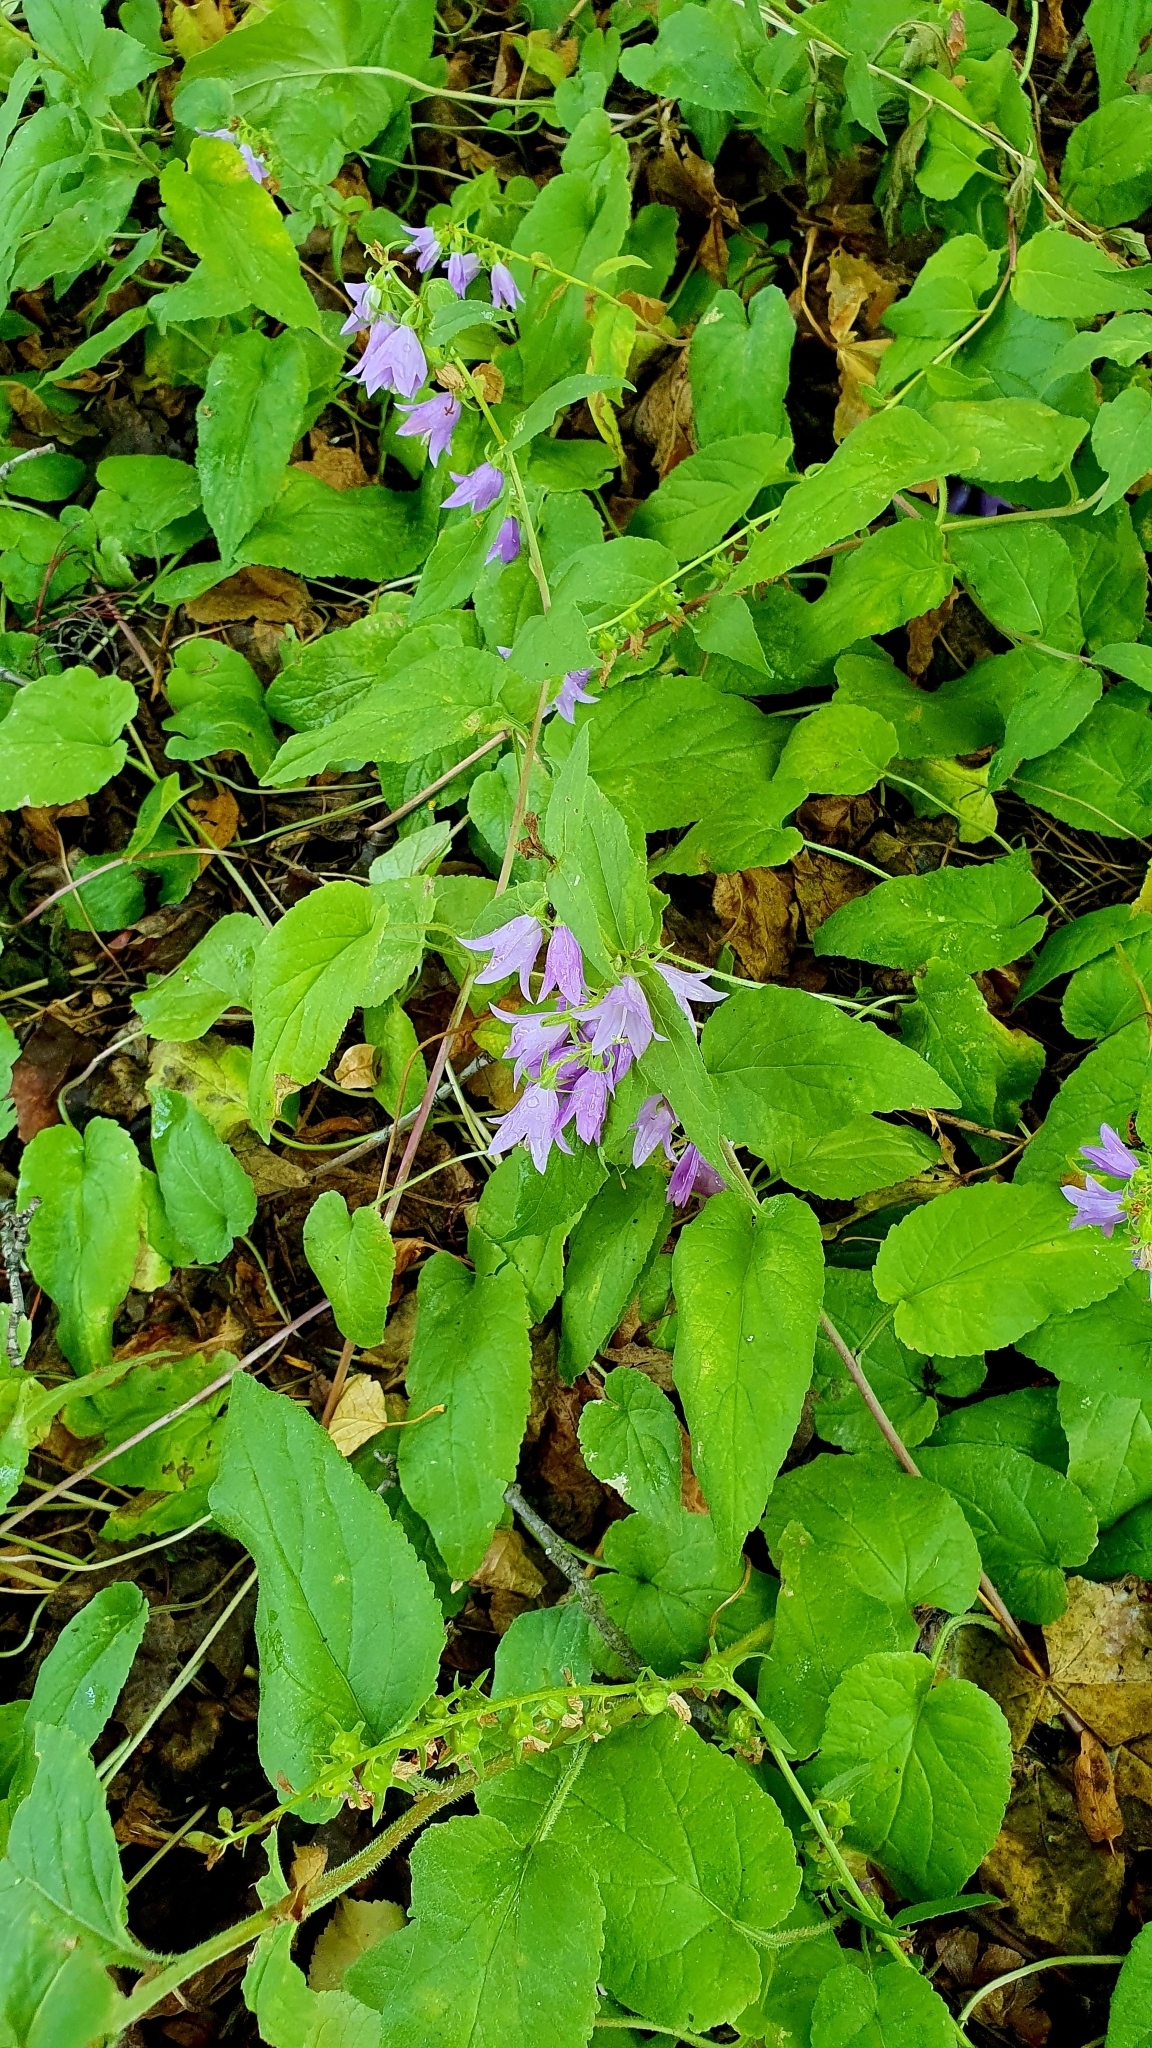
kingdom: Plantae
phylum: Tracheophyta
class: Magnoliopsida
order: Asterales
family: Campanulaceae
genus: Campanula
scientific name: Campanula rapunculoides
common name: Creeping bellflower
